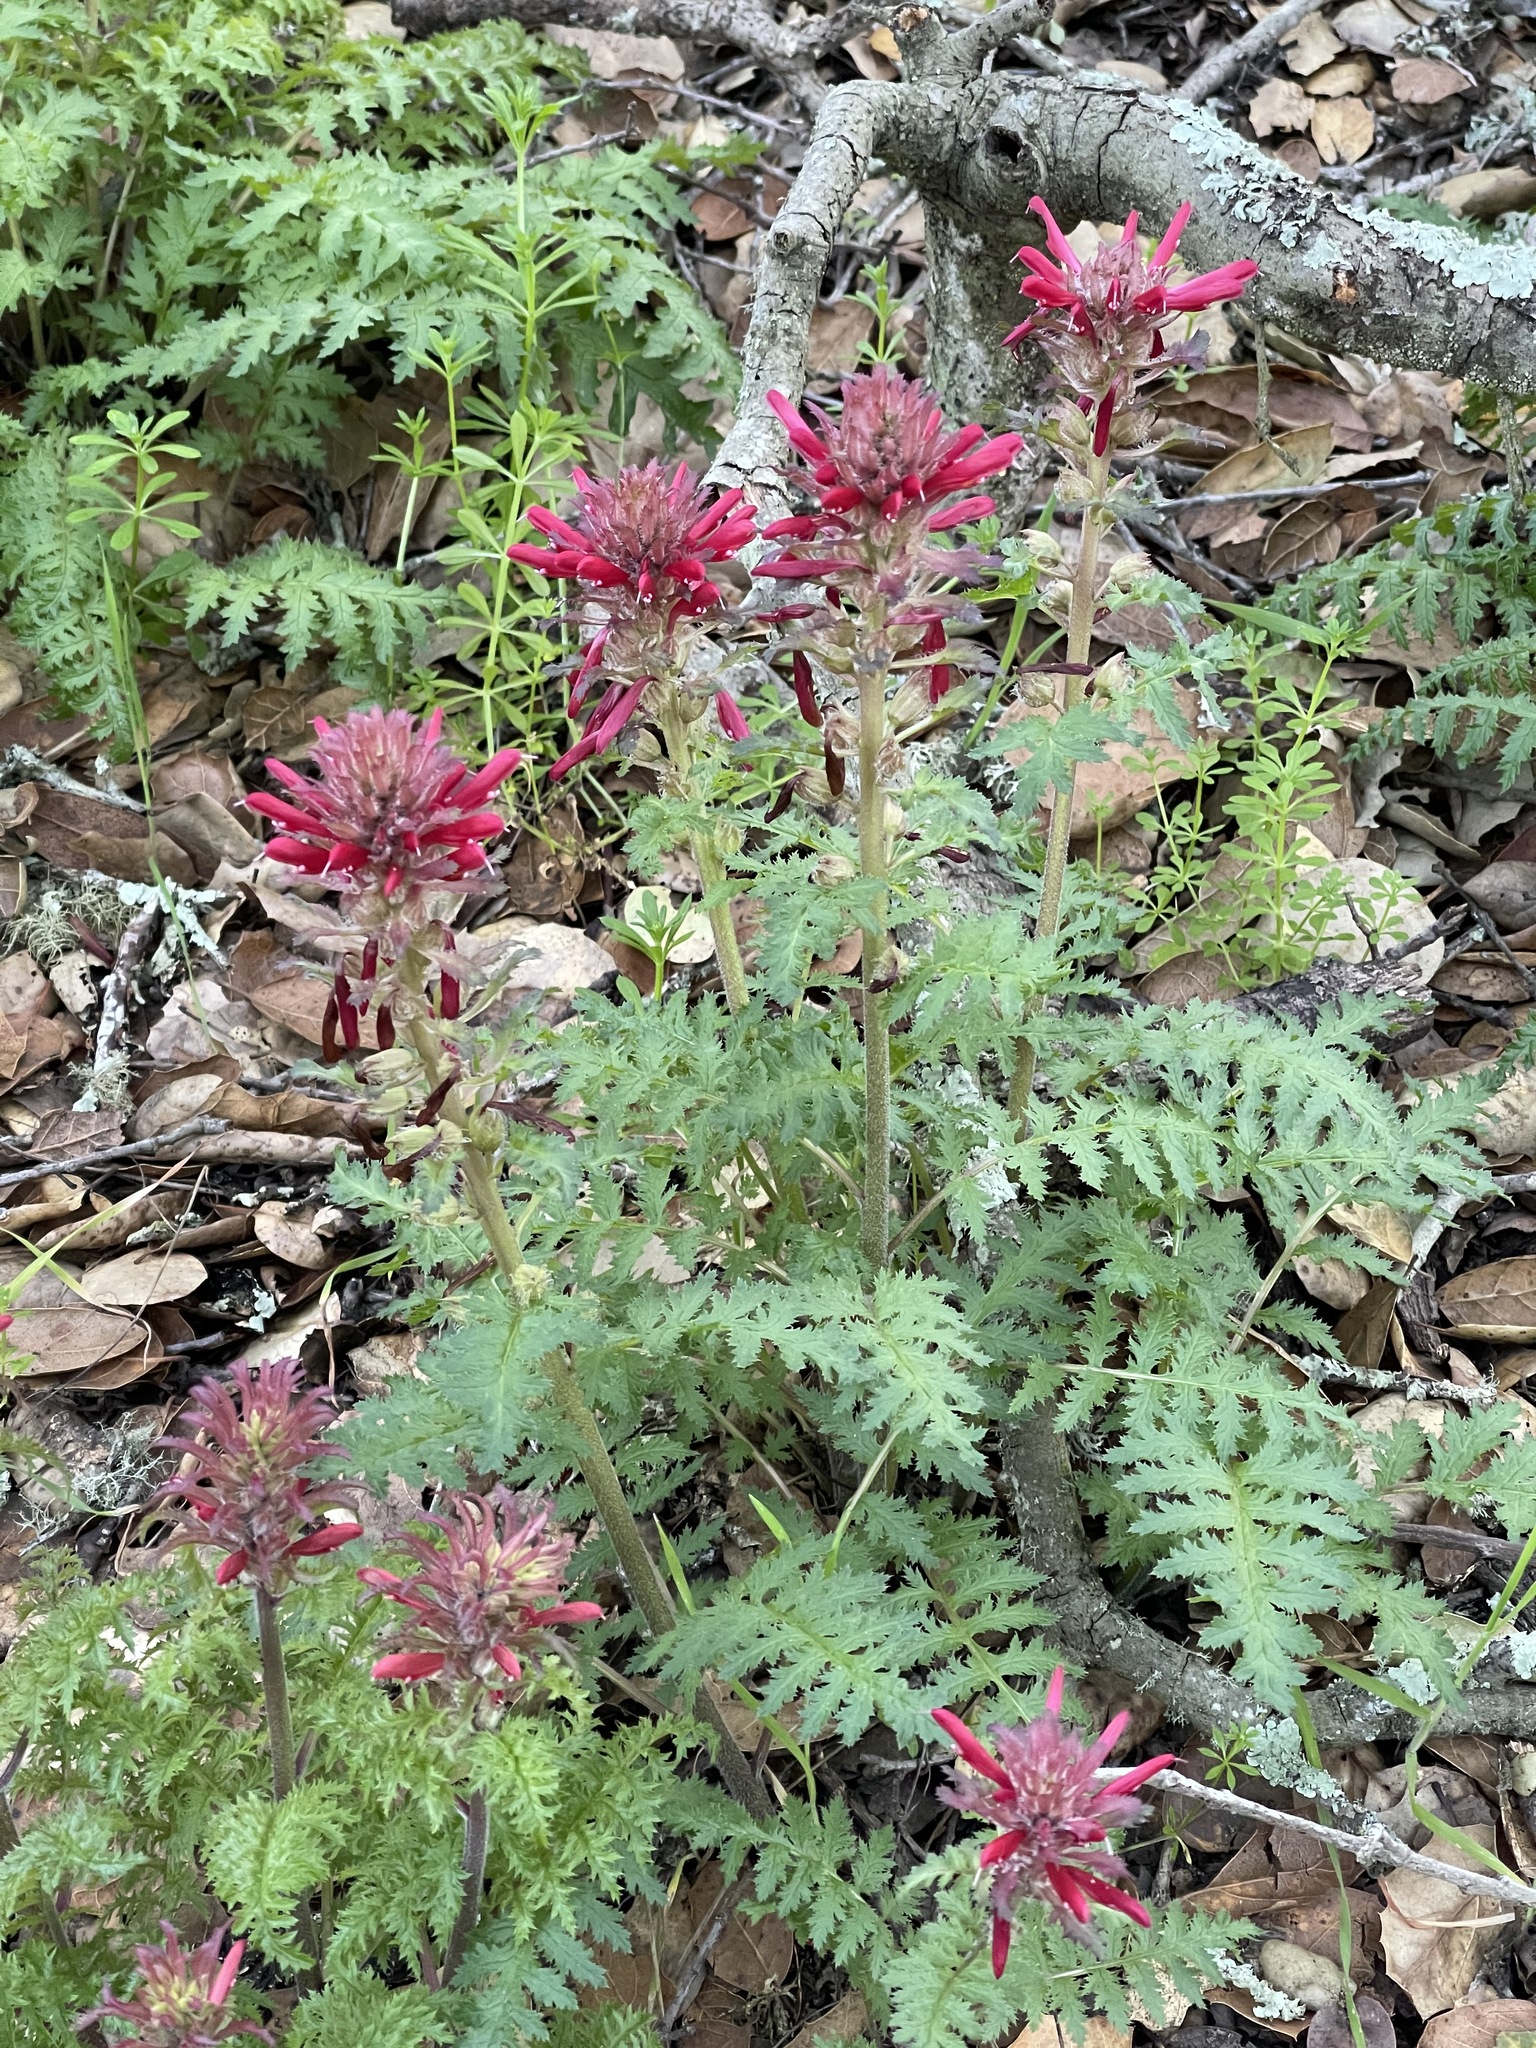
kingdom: Plantae
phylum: Tracheophyta
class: Magnoliopsida
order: Lamiales
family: Orobanchaceae
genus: Pedicularis
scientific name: Pedicularis densiflora
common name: Indian warrior
